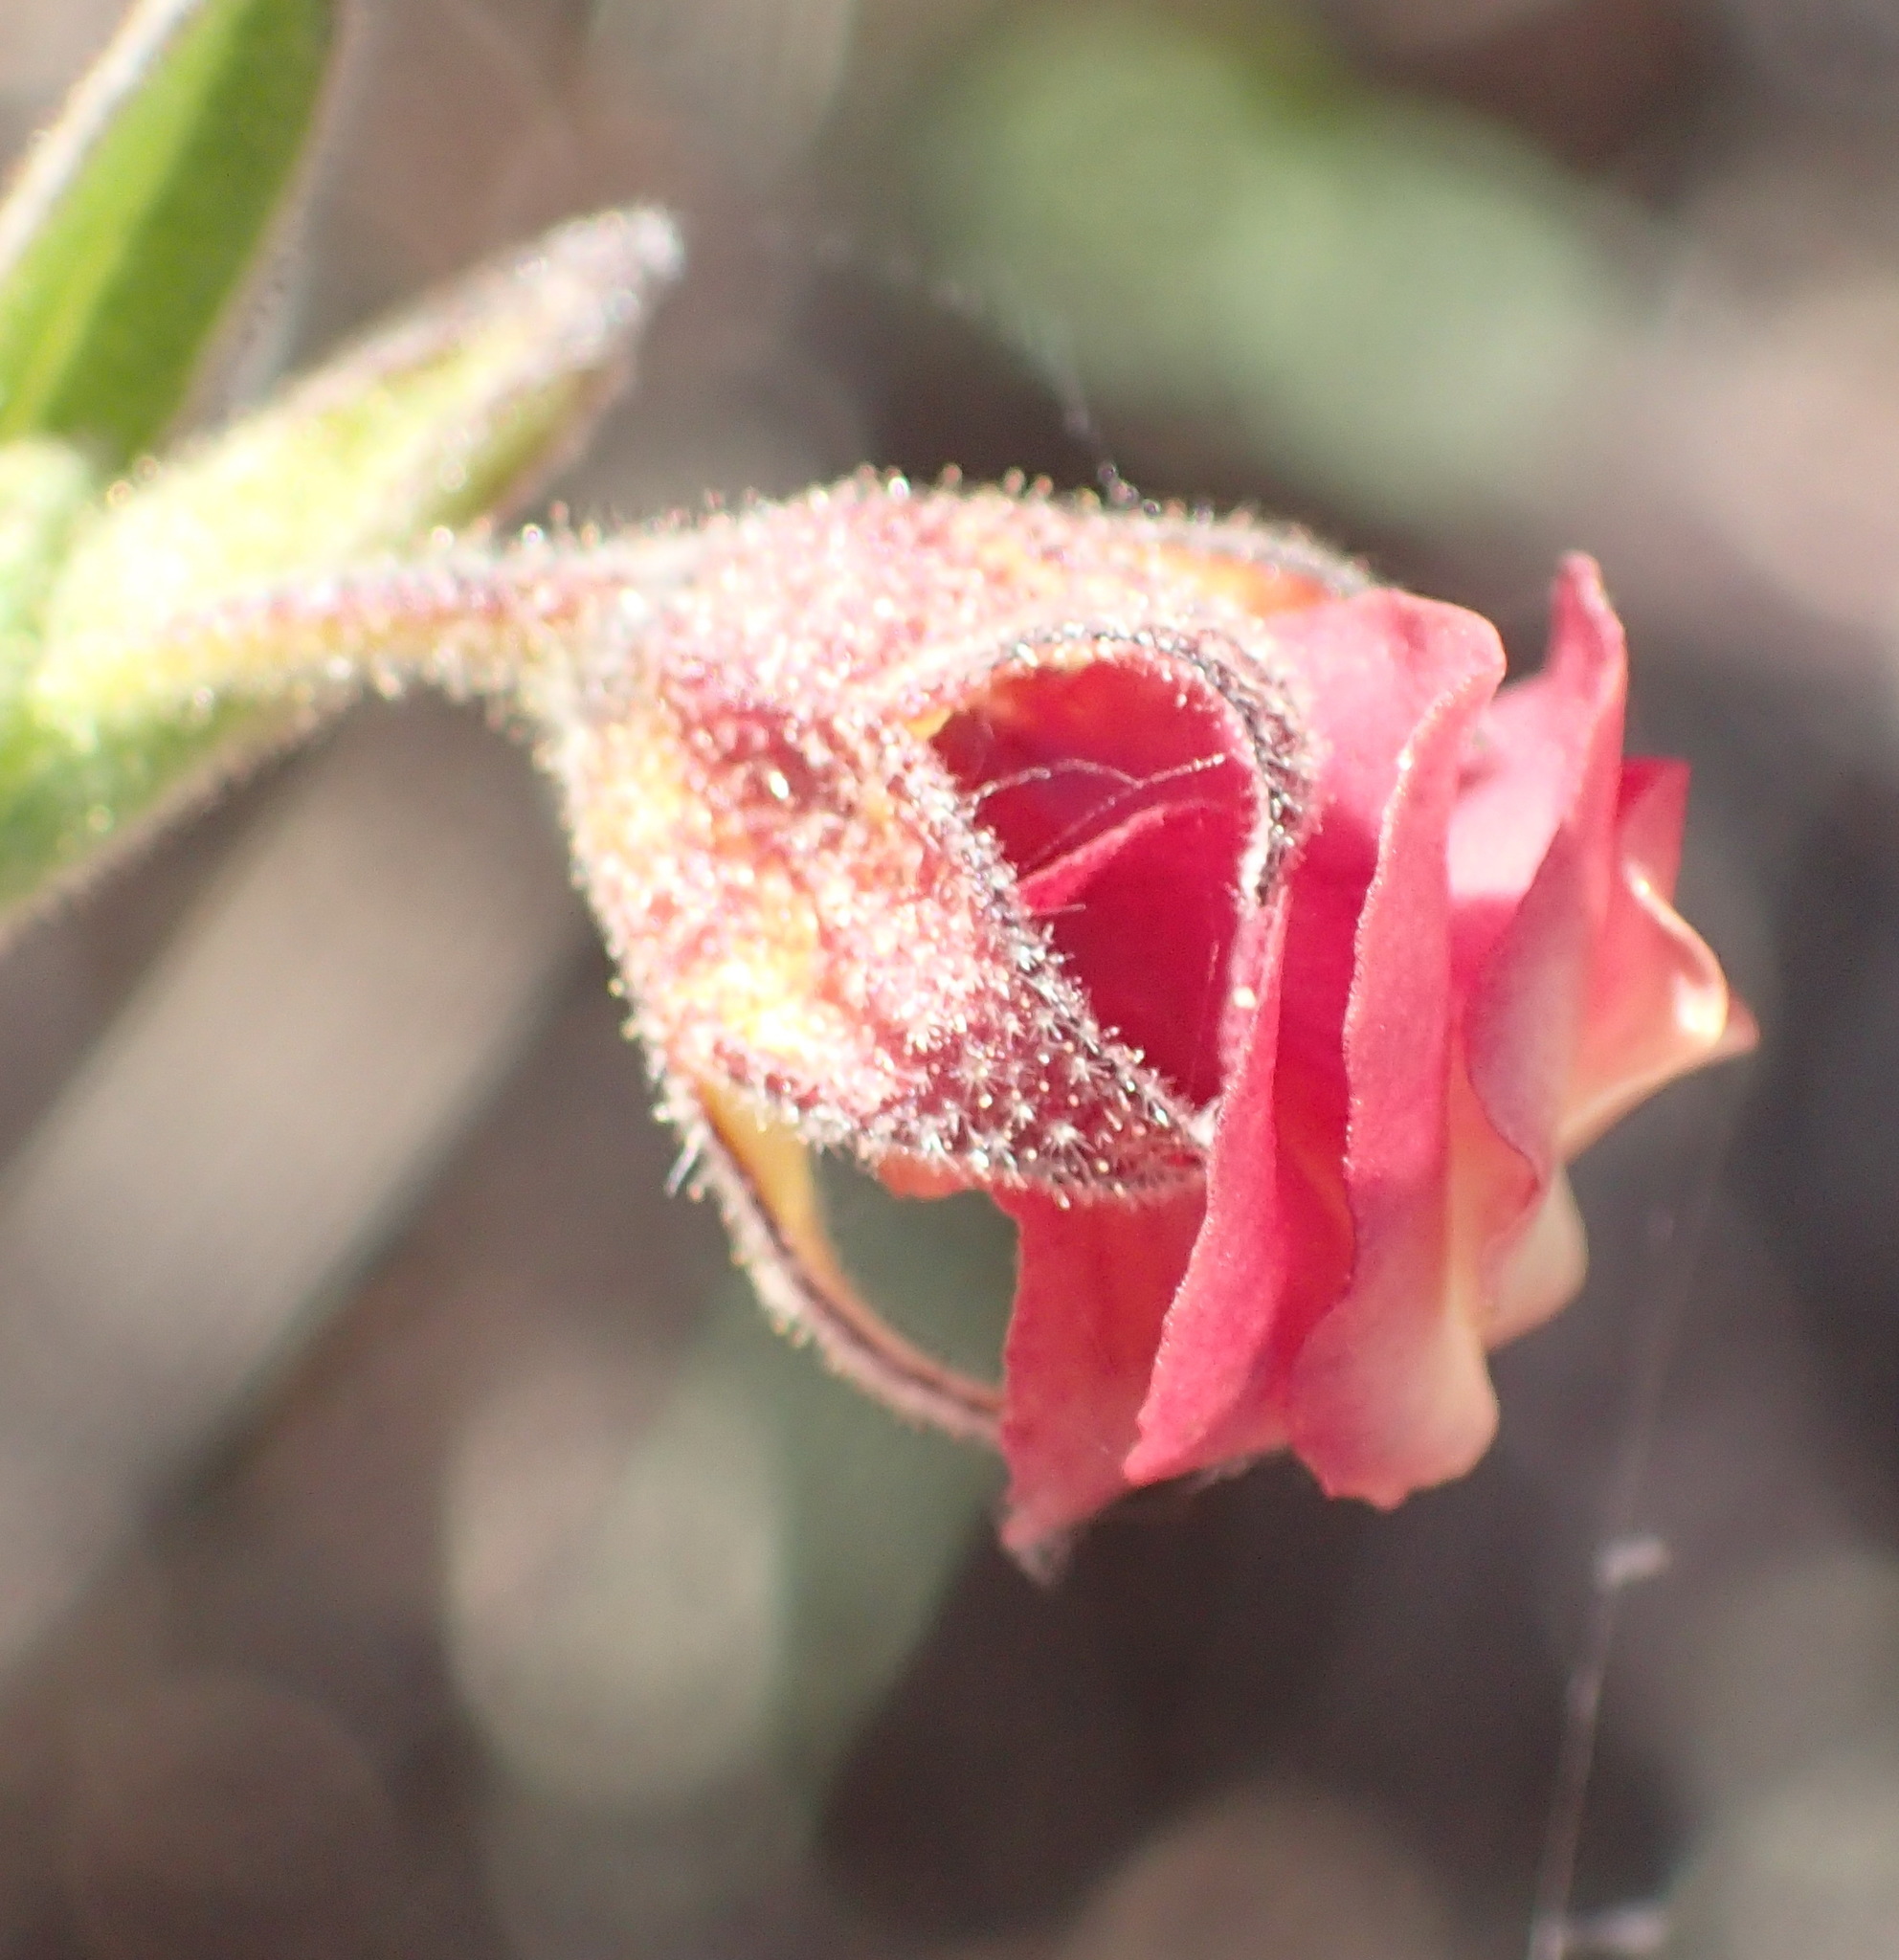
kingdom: Plantae
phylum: Tracheophyta
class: Magnoliopsida
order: Malvales
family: Malvaceae
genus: Hermannia
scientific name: Hermannia flammula
